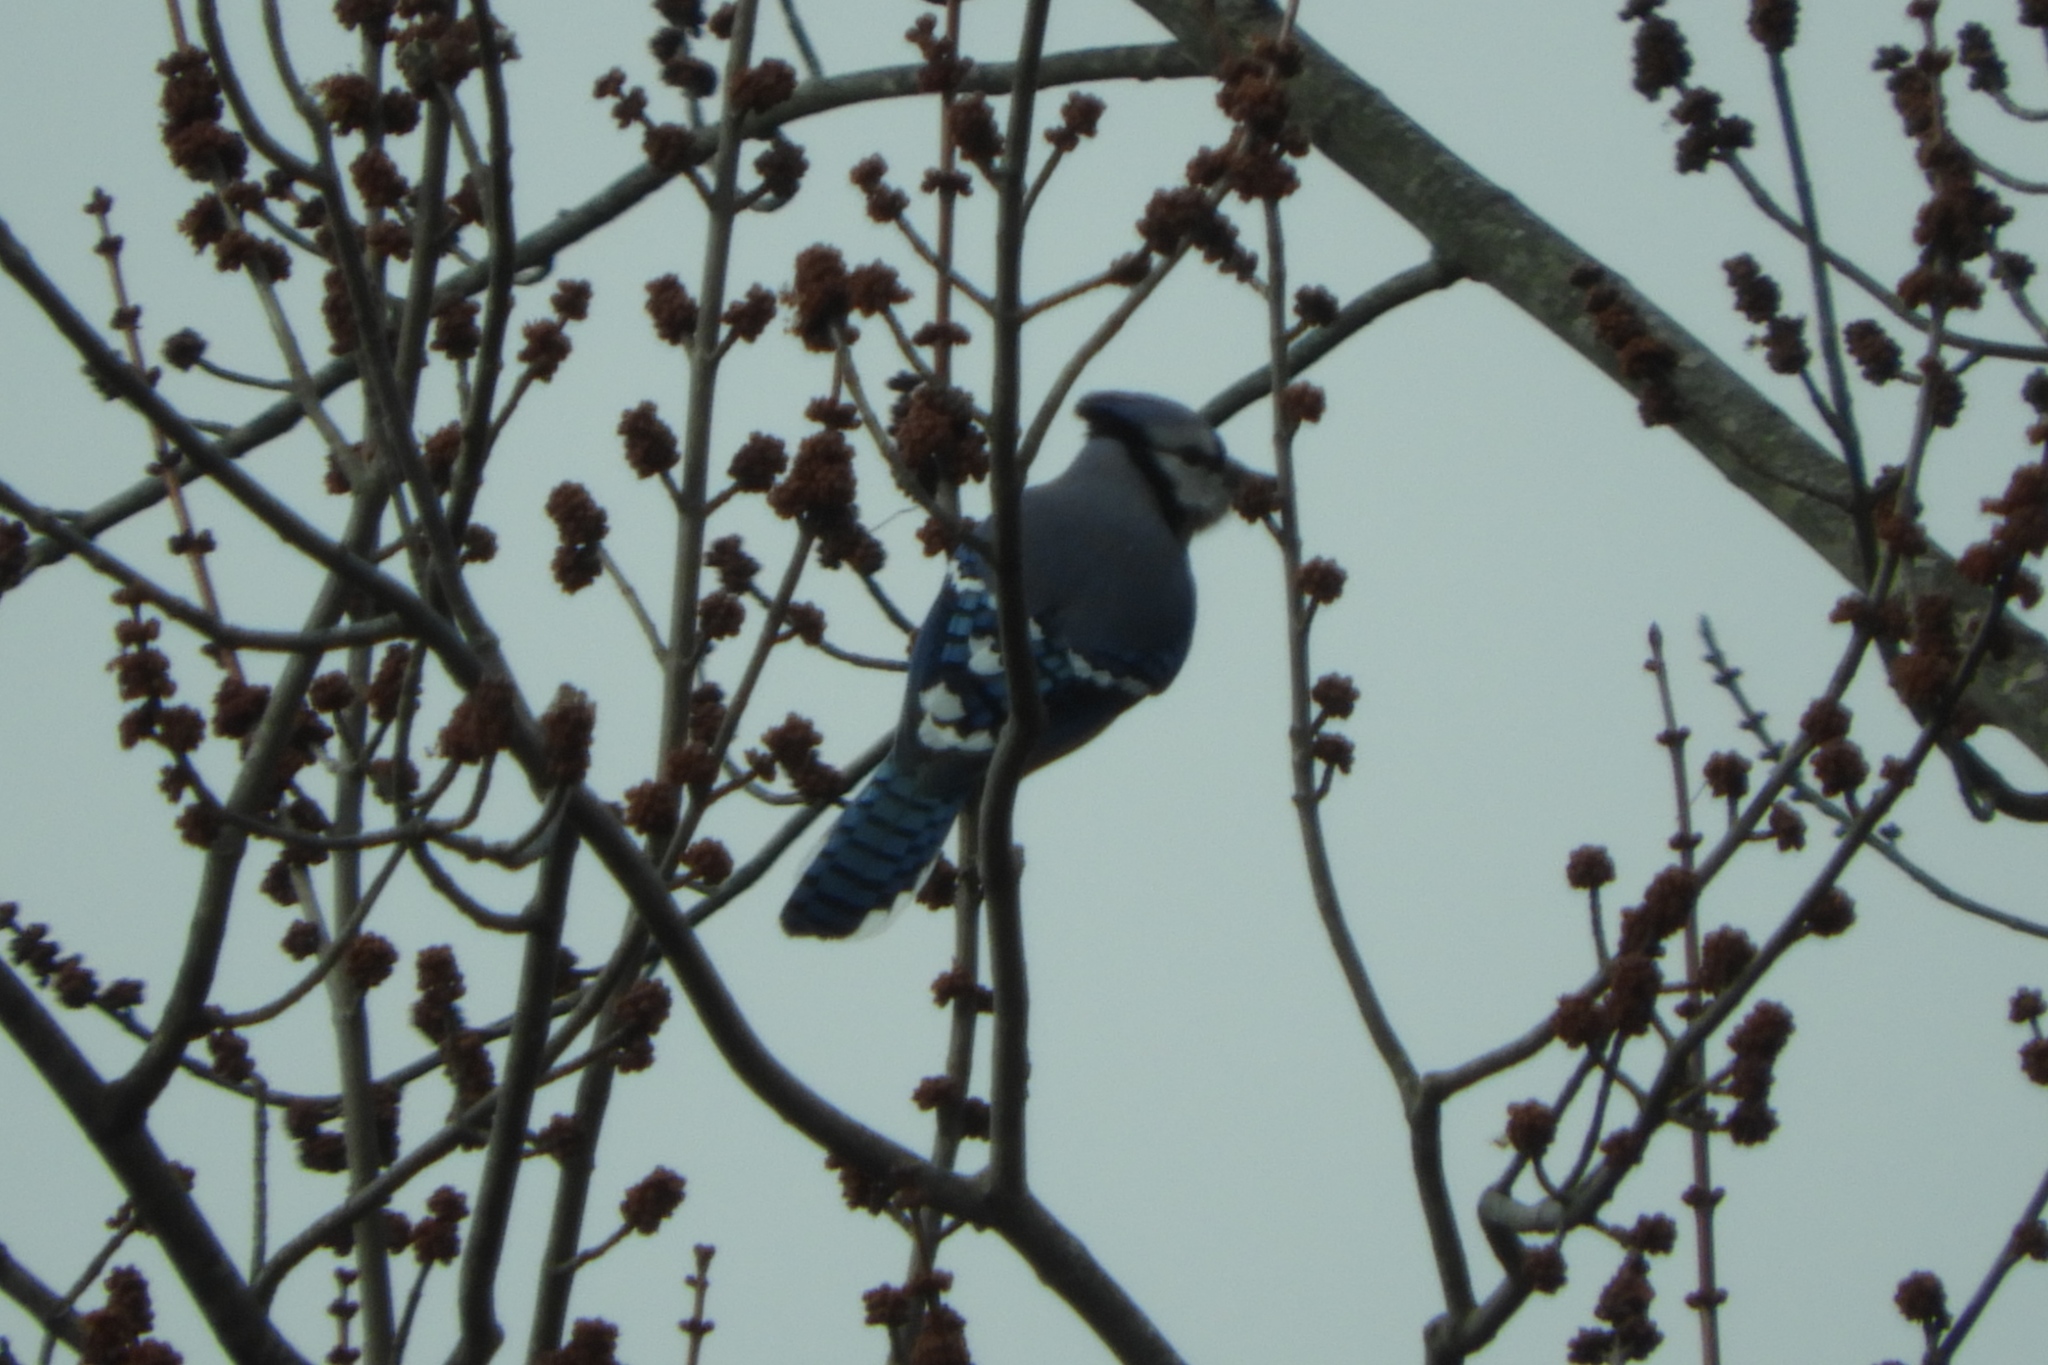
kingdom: Animalia
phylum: Chordata
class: Aves
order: Passeriformes
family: Corvidae
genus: Cyanocitta
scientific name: Cyanocitta cristata
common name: Blue jay
